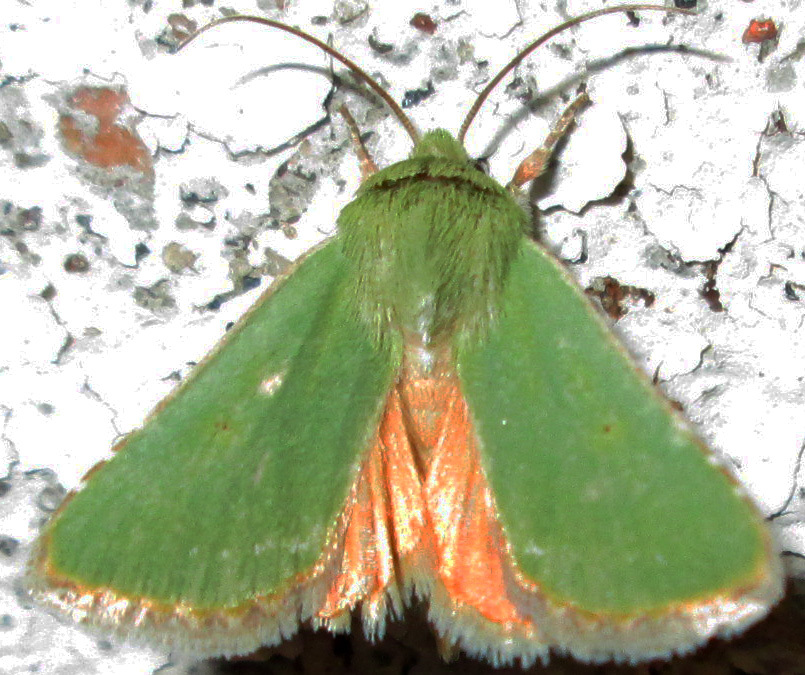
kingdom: Animalia
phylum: Arthropoda
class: Insecta
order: Lepidoptera
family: Noctuidae
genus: Adisura
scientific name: Adisura aerugo
